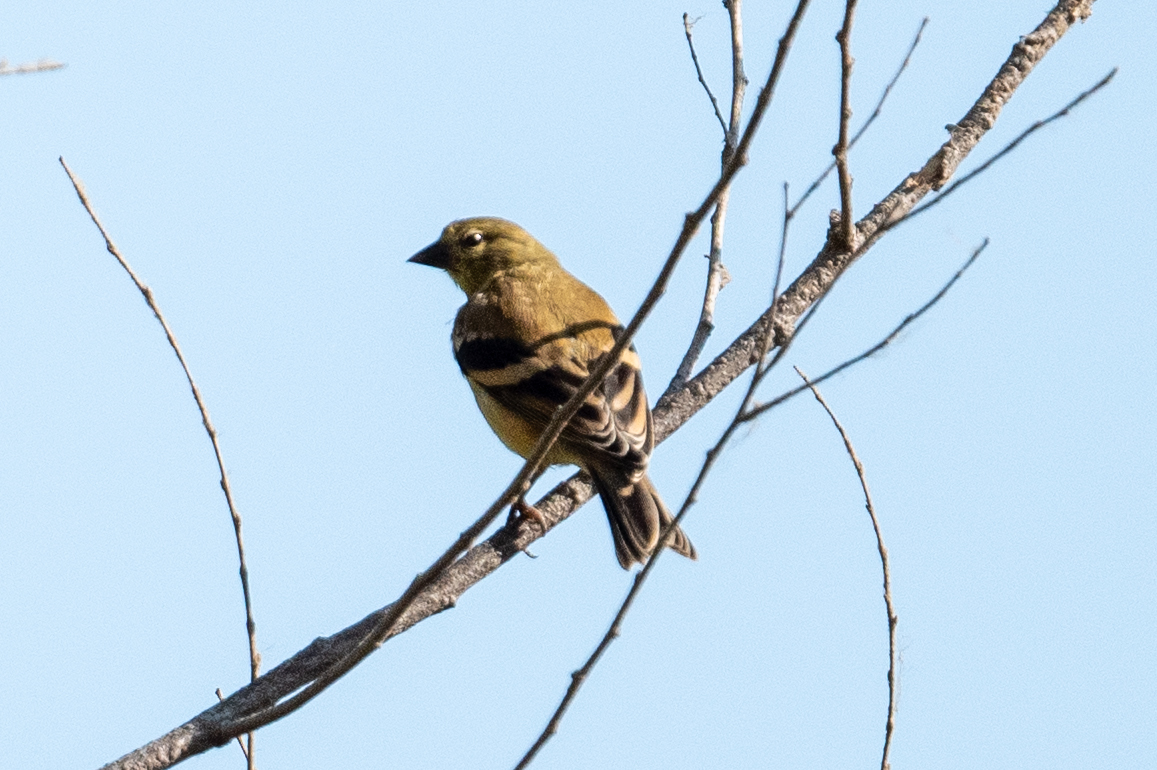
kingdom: Animalia
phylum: Chordata
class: Aves
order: Passeriformes
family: Fringillidae
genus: Spinus
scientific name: Spinus tristis
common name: American goldfinch
